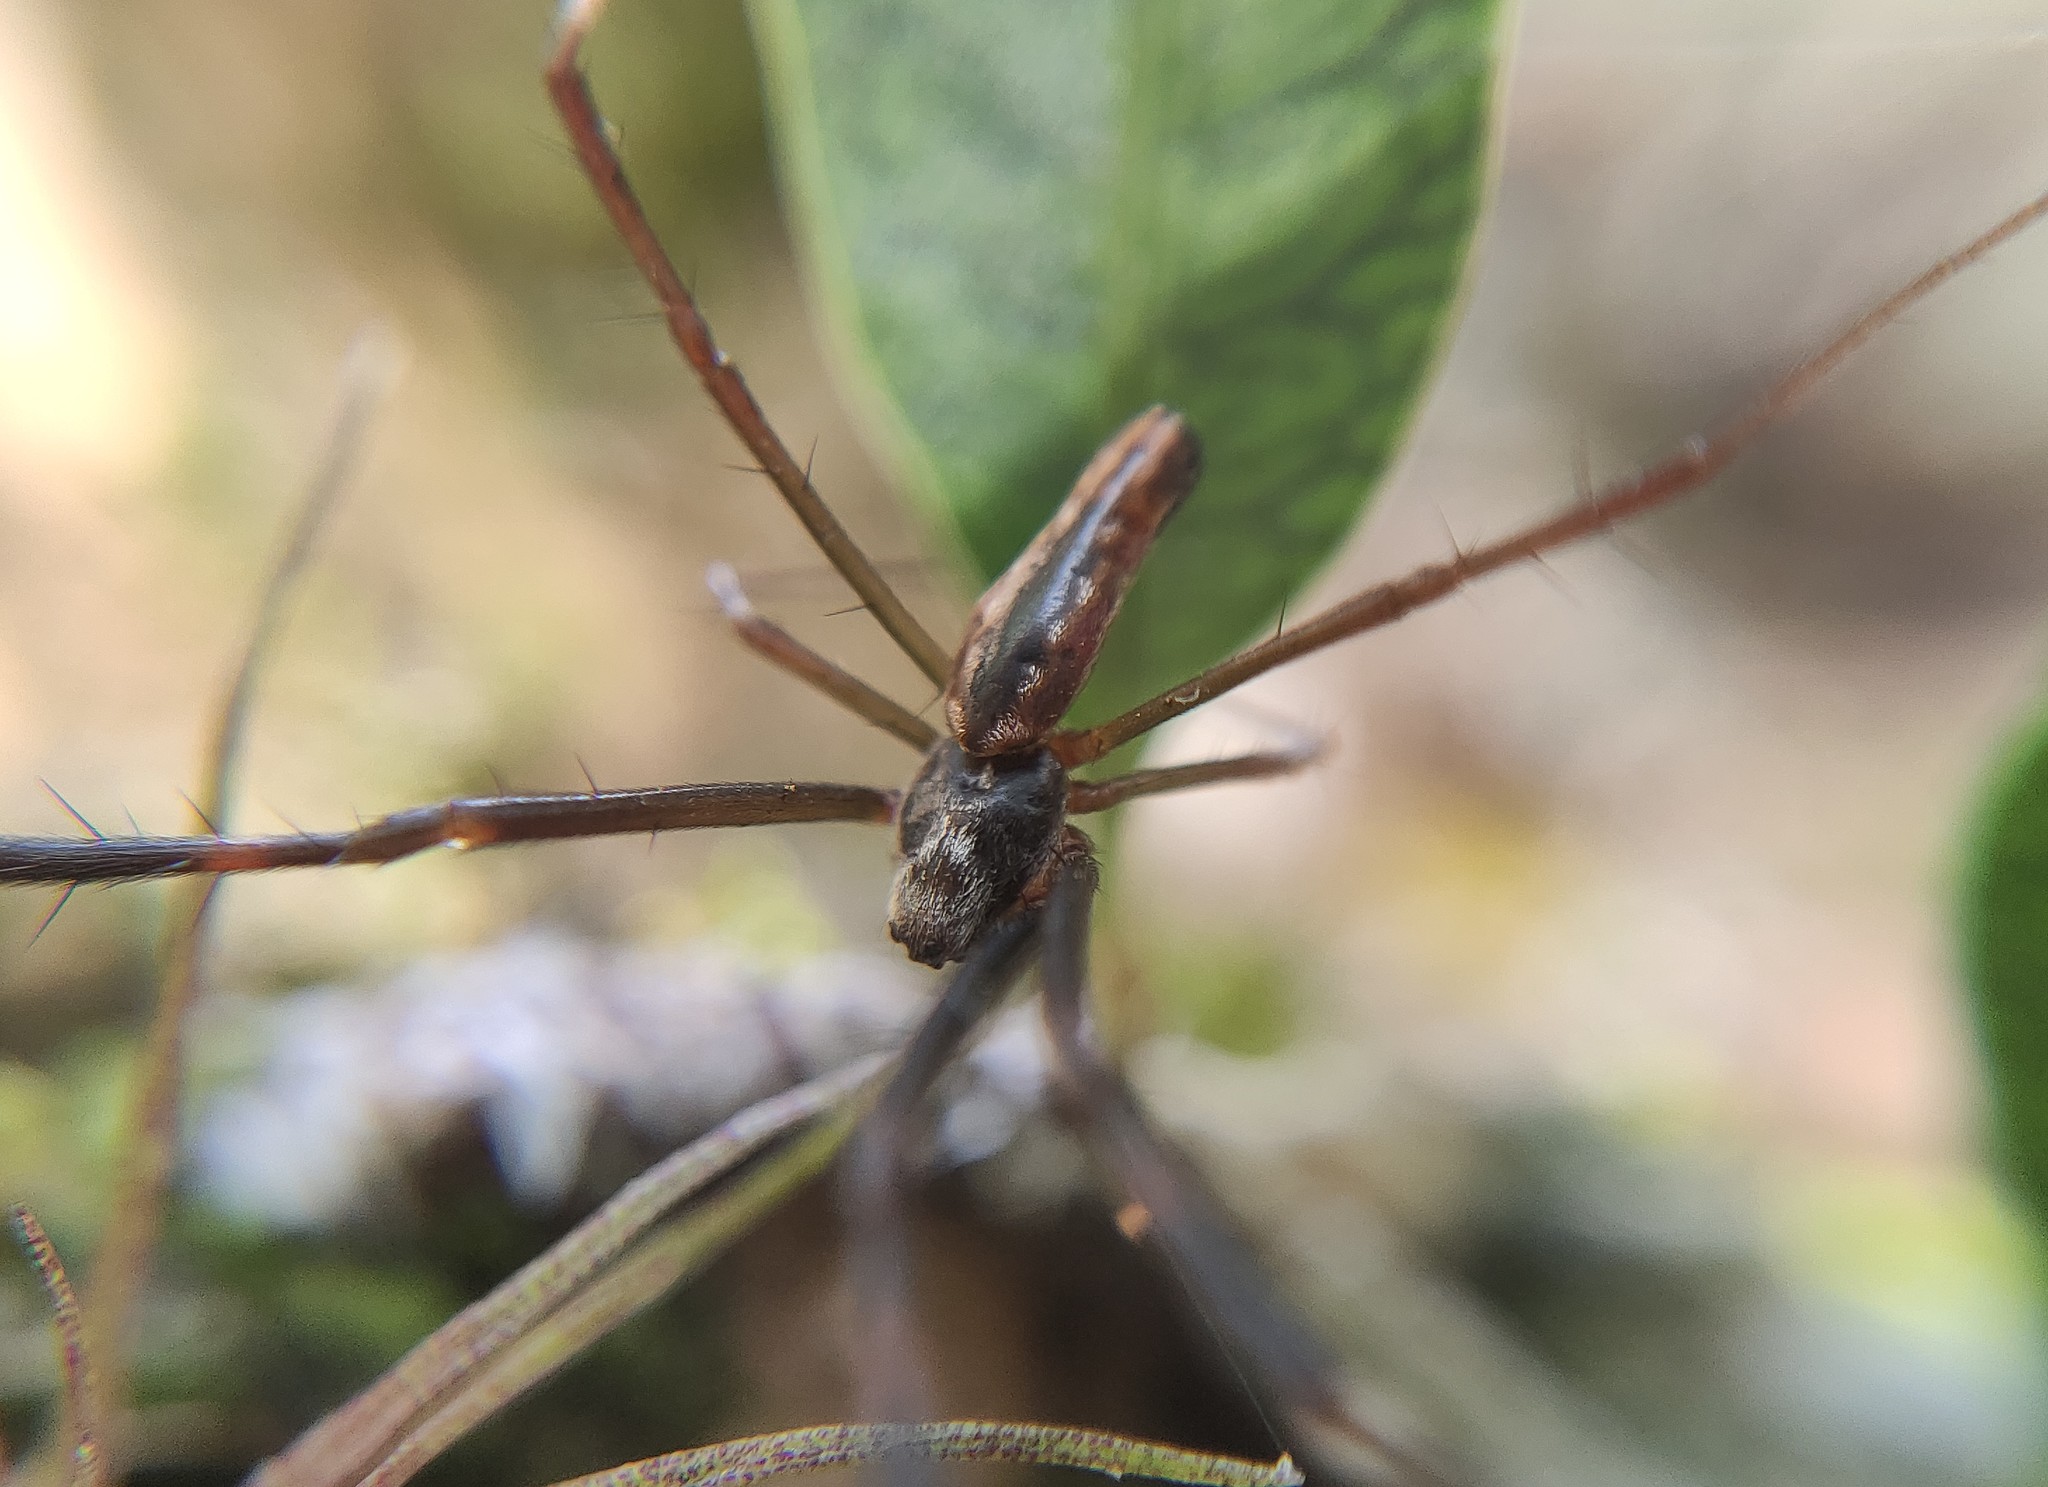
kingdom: Animalia
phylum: Arthropoda
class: Arachnida
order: Araneae
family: Araneidae
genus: Trichonephila
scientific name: Trichonephila clavipes
